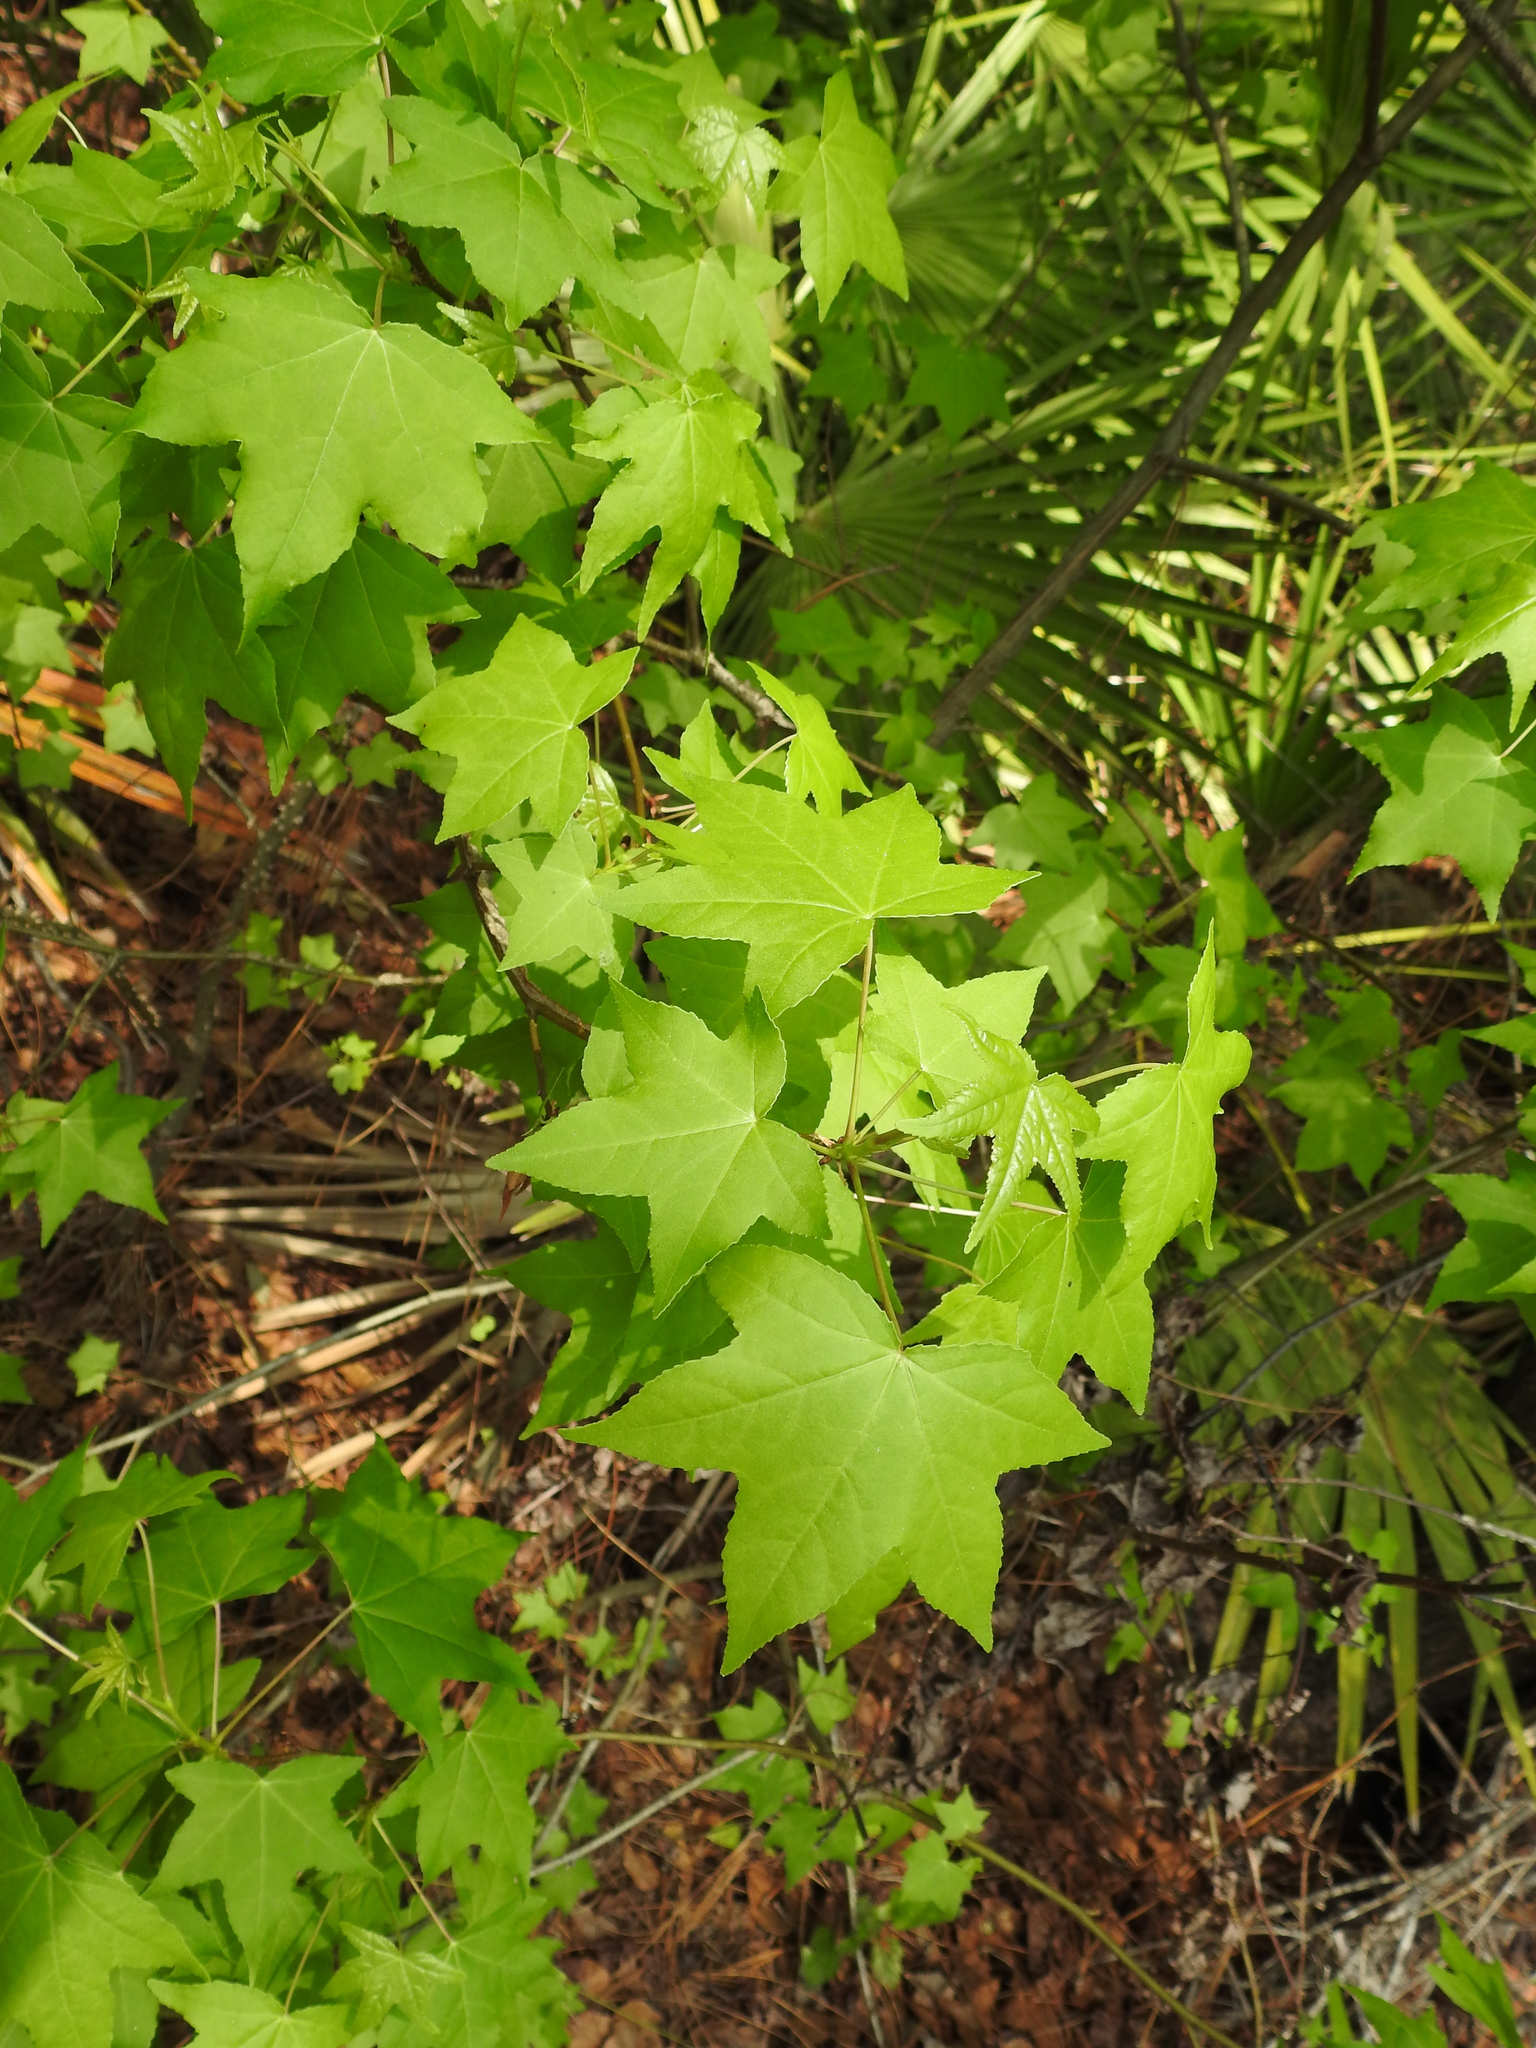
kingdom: Plantae
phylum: Tracheophyta
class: Magnoliopsida
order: Saxifragales
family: Altingiaceae
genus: Liquidambar
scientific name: Liquidambar styraciflua
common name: Sweet gum
